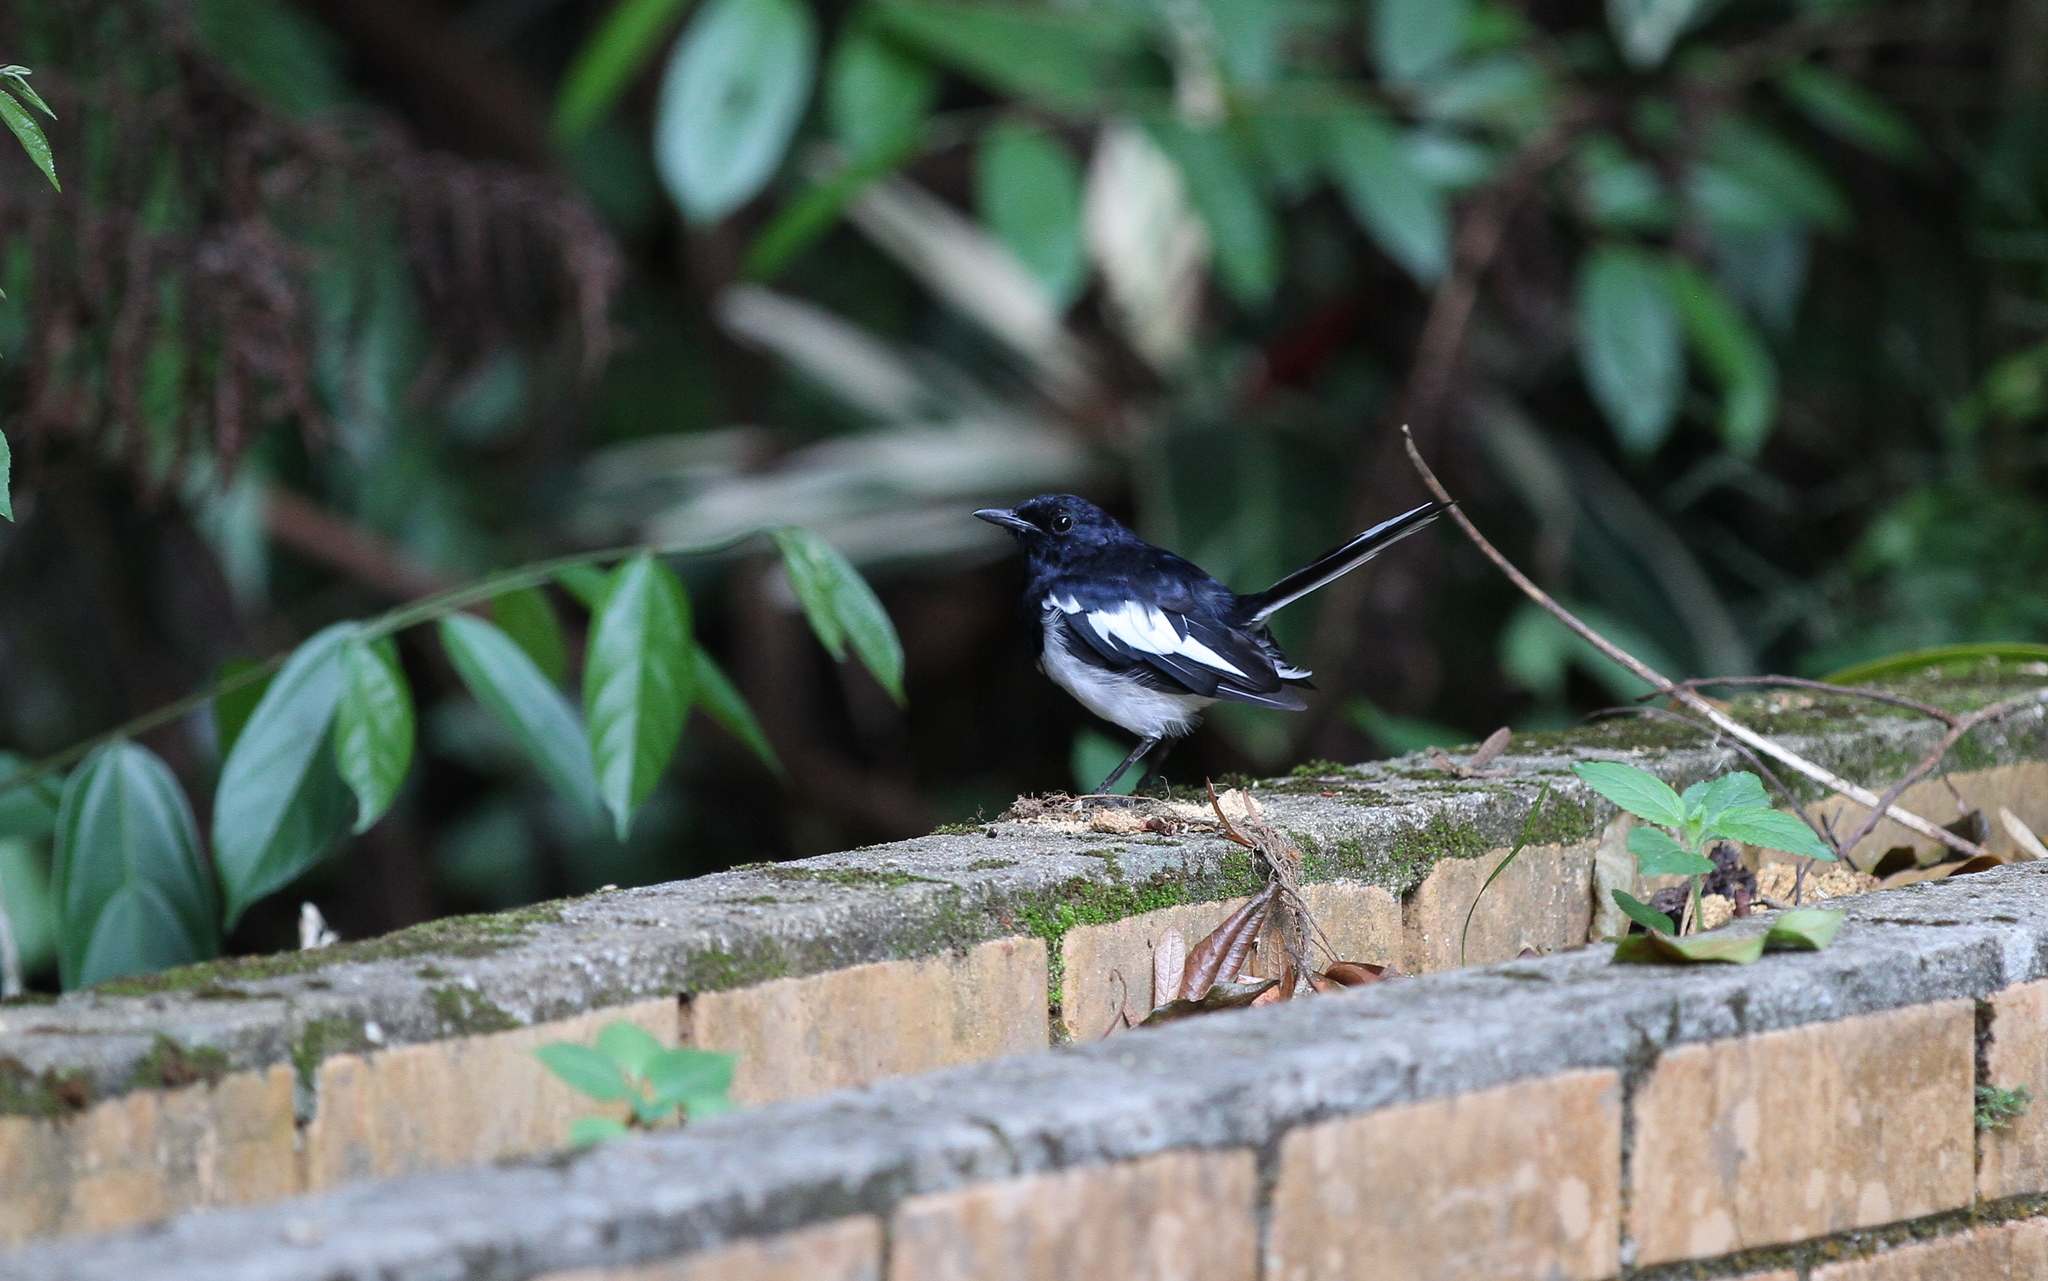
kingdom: Animalia
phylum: Chordata
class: Aves
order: Passeriformes
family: Muscicapidae
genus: Copsychus
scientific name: Copsychus saularis
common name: Oriental magpie-robin
